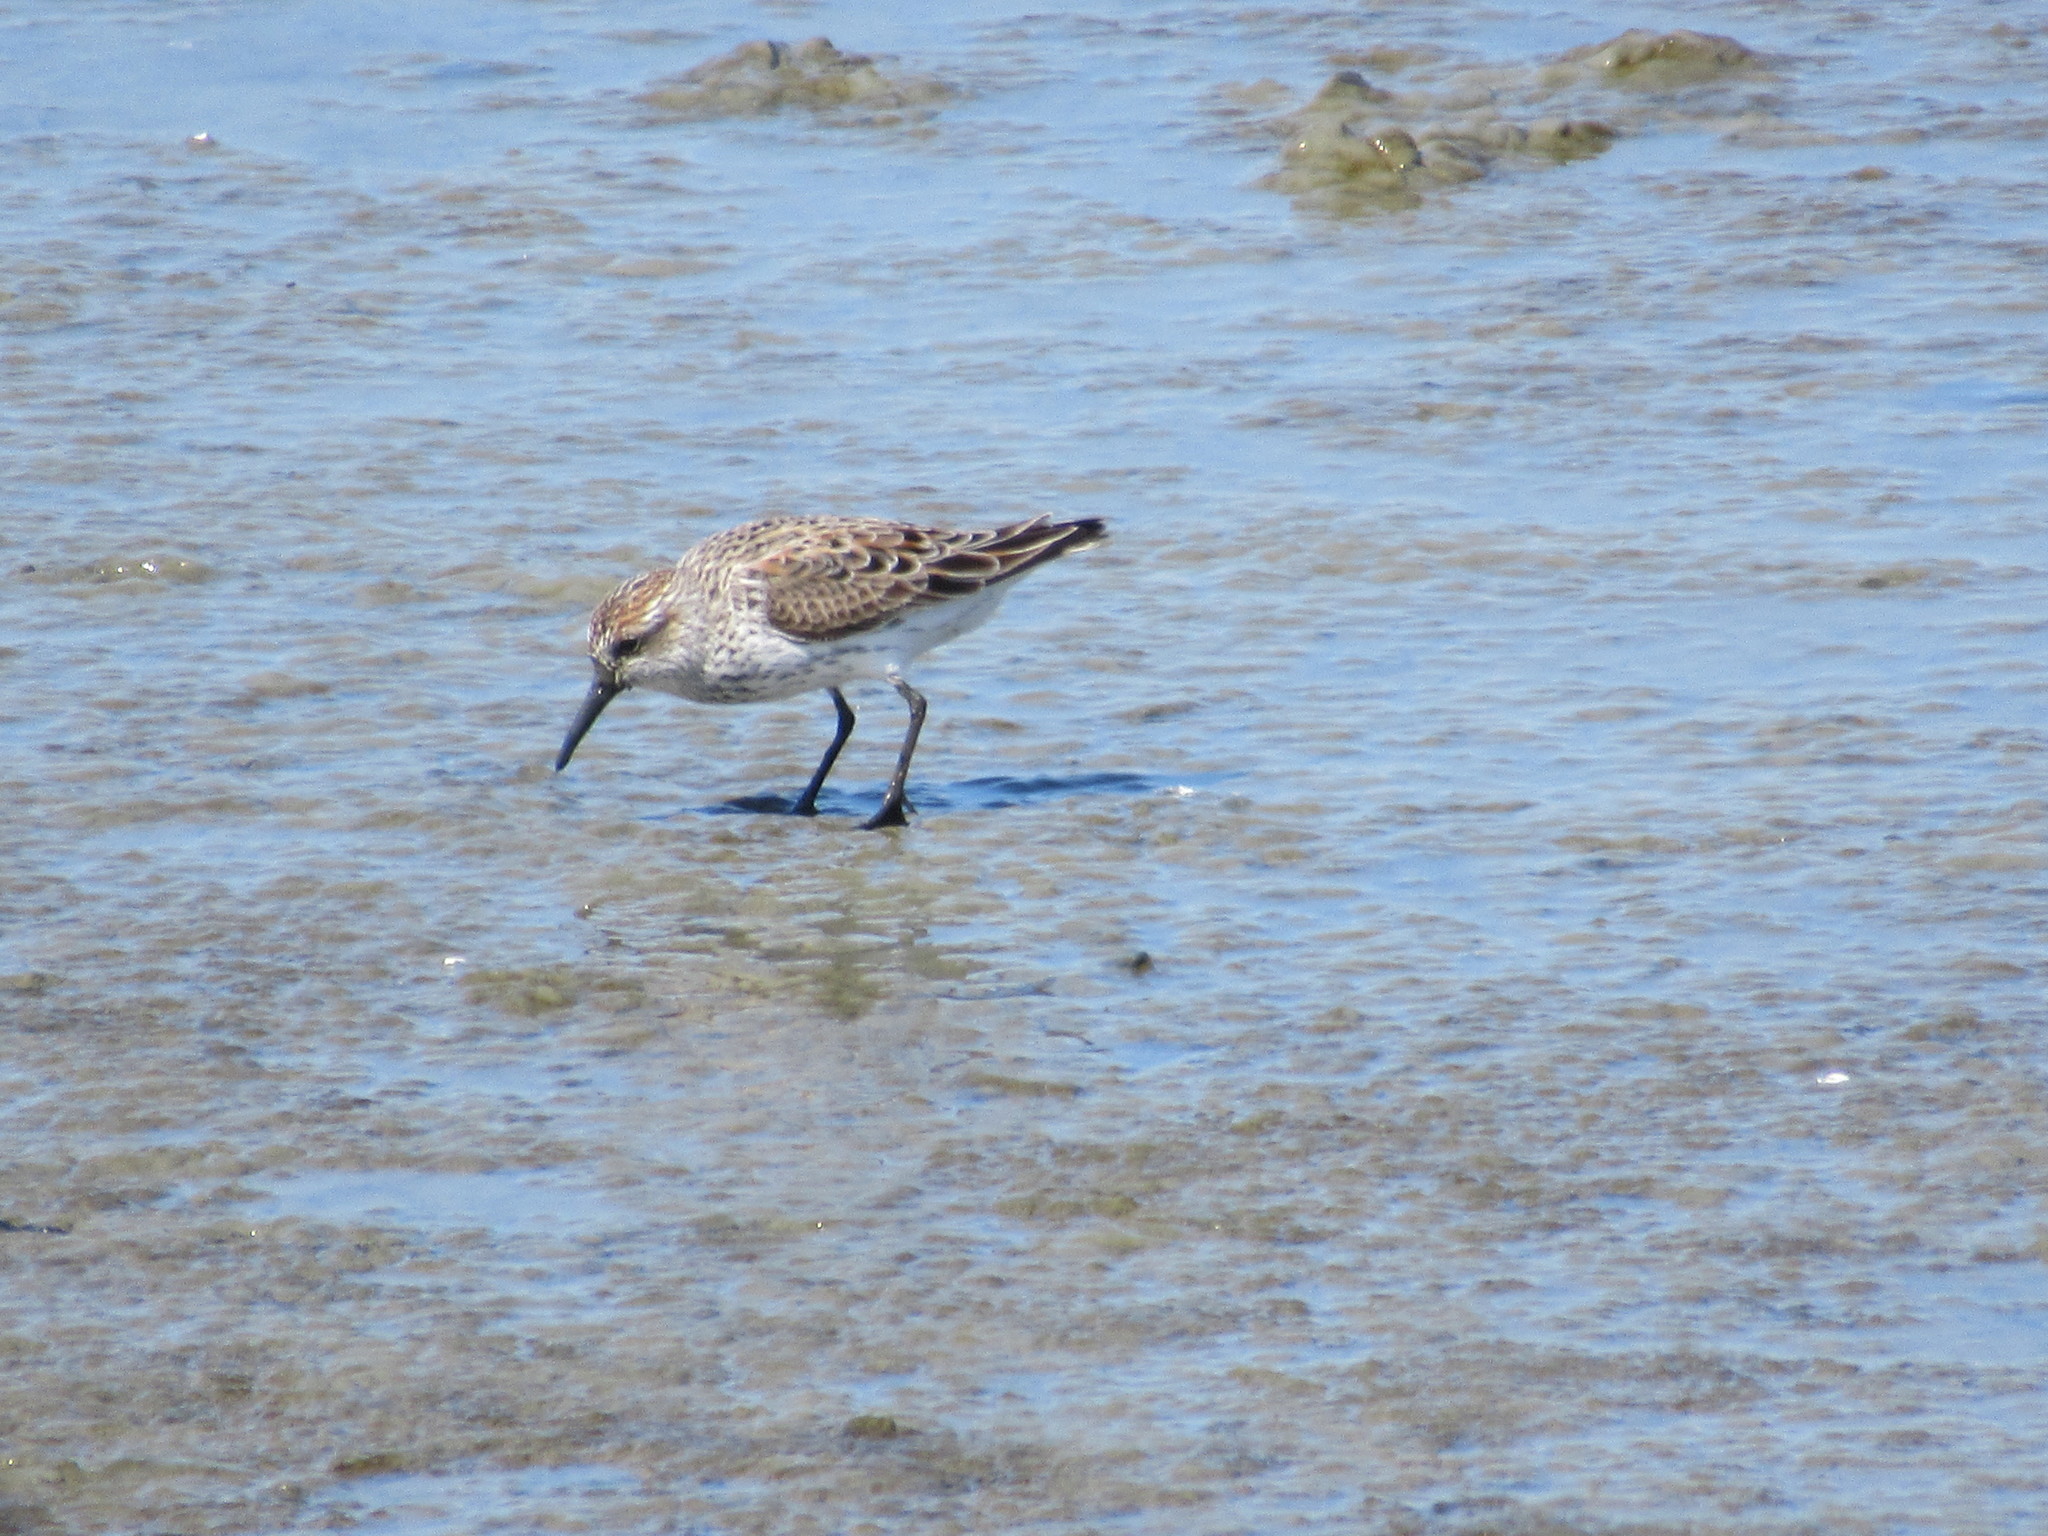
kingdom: Animalia
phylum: Chordata
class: Aves
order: Charadriiformes
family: Scolopacidae
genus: Calidris
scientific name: Calidris mauri
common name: Western sandpiper
